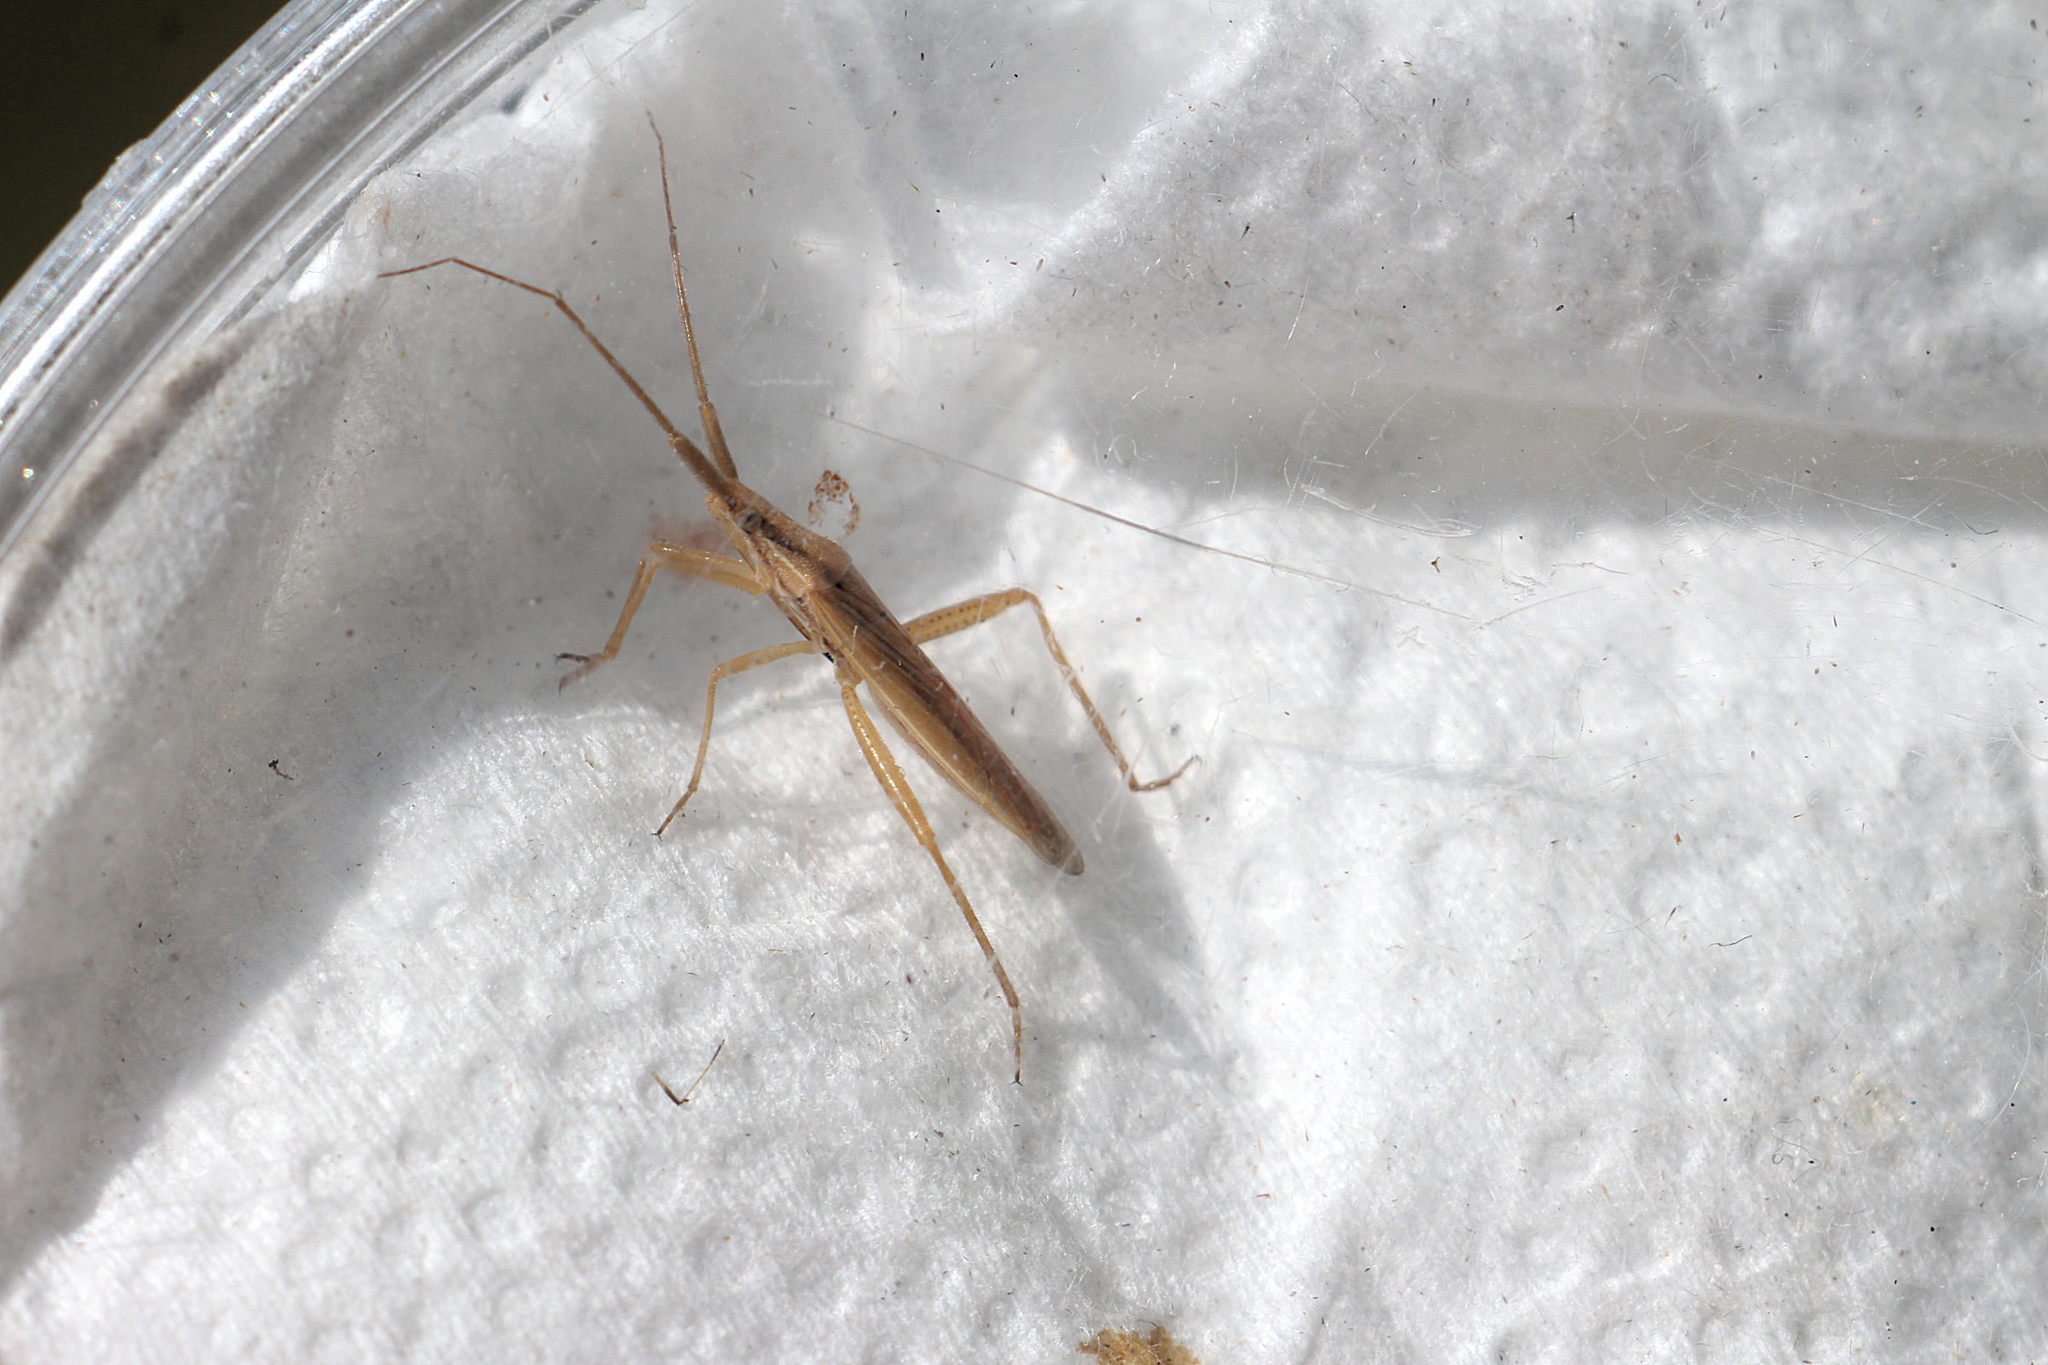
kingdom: Animalia
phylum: Arthropoda
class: Insecta
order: Hemiptera
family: Miridae
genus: Stenodema
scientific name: Stenodema laevigata
